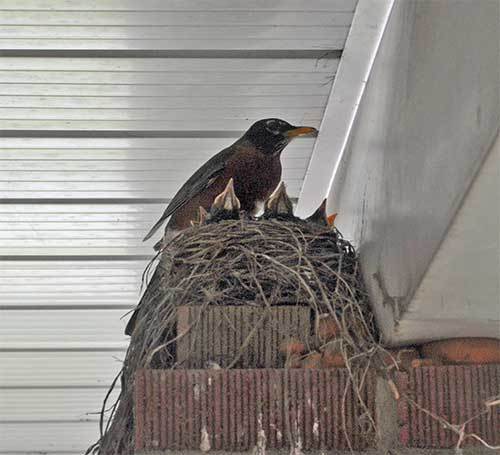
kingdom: Animalia
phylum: Chordata
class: Aves
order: Passeriformes
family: Turdidae
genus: Turdus
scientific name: Turdus migratorius
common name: American robin
